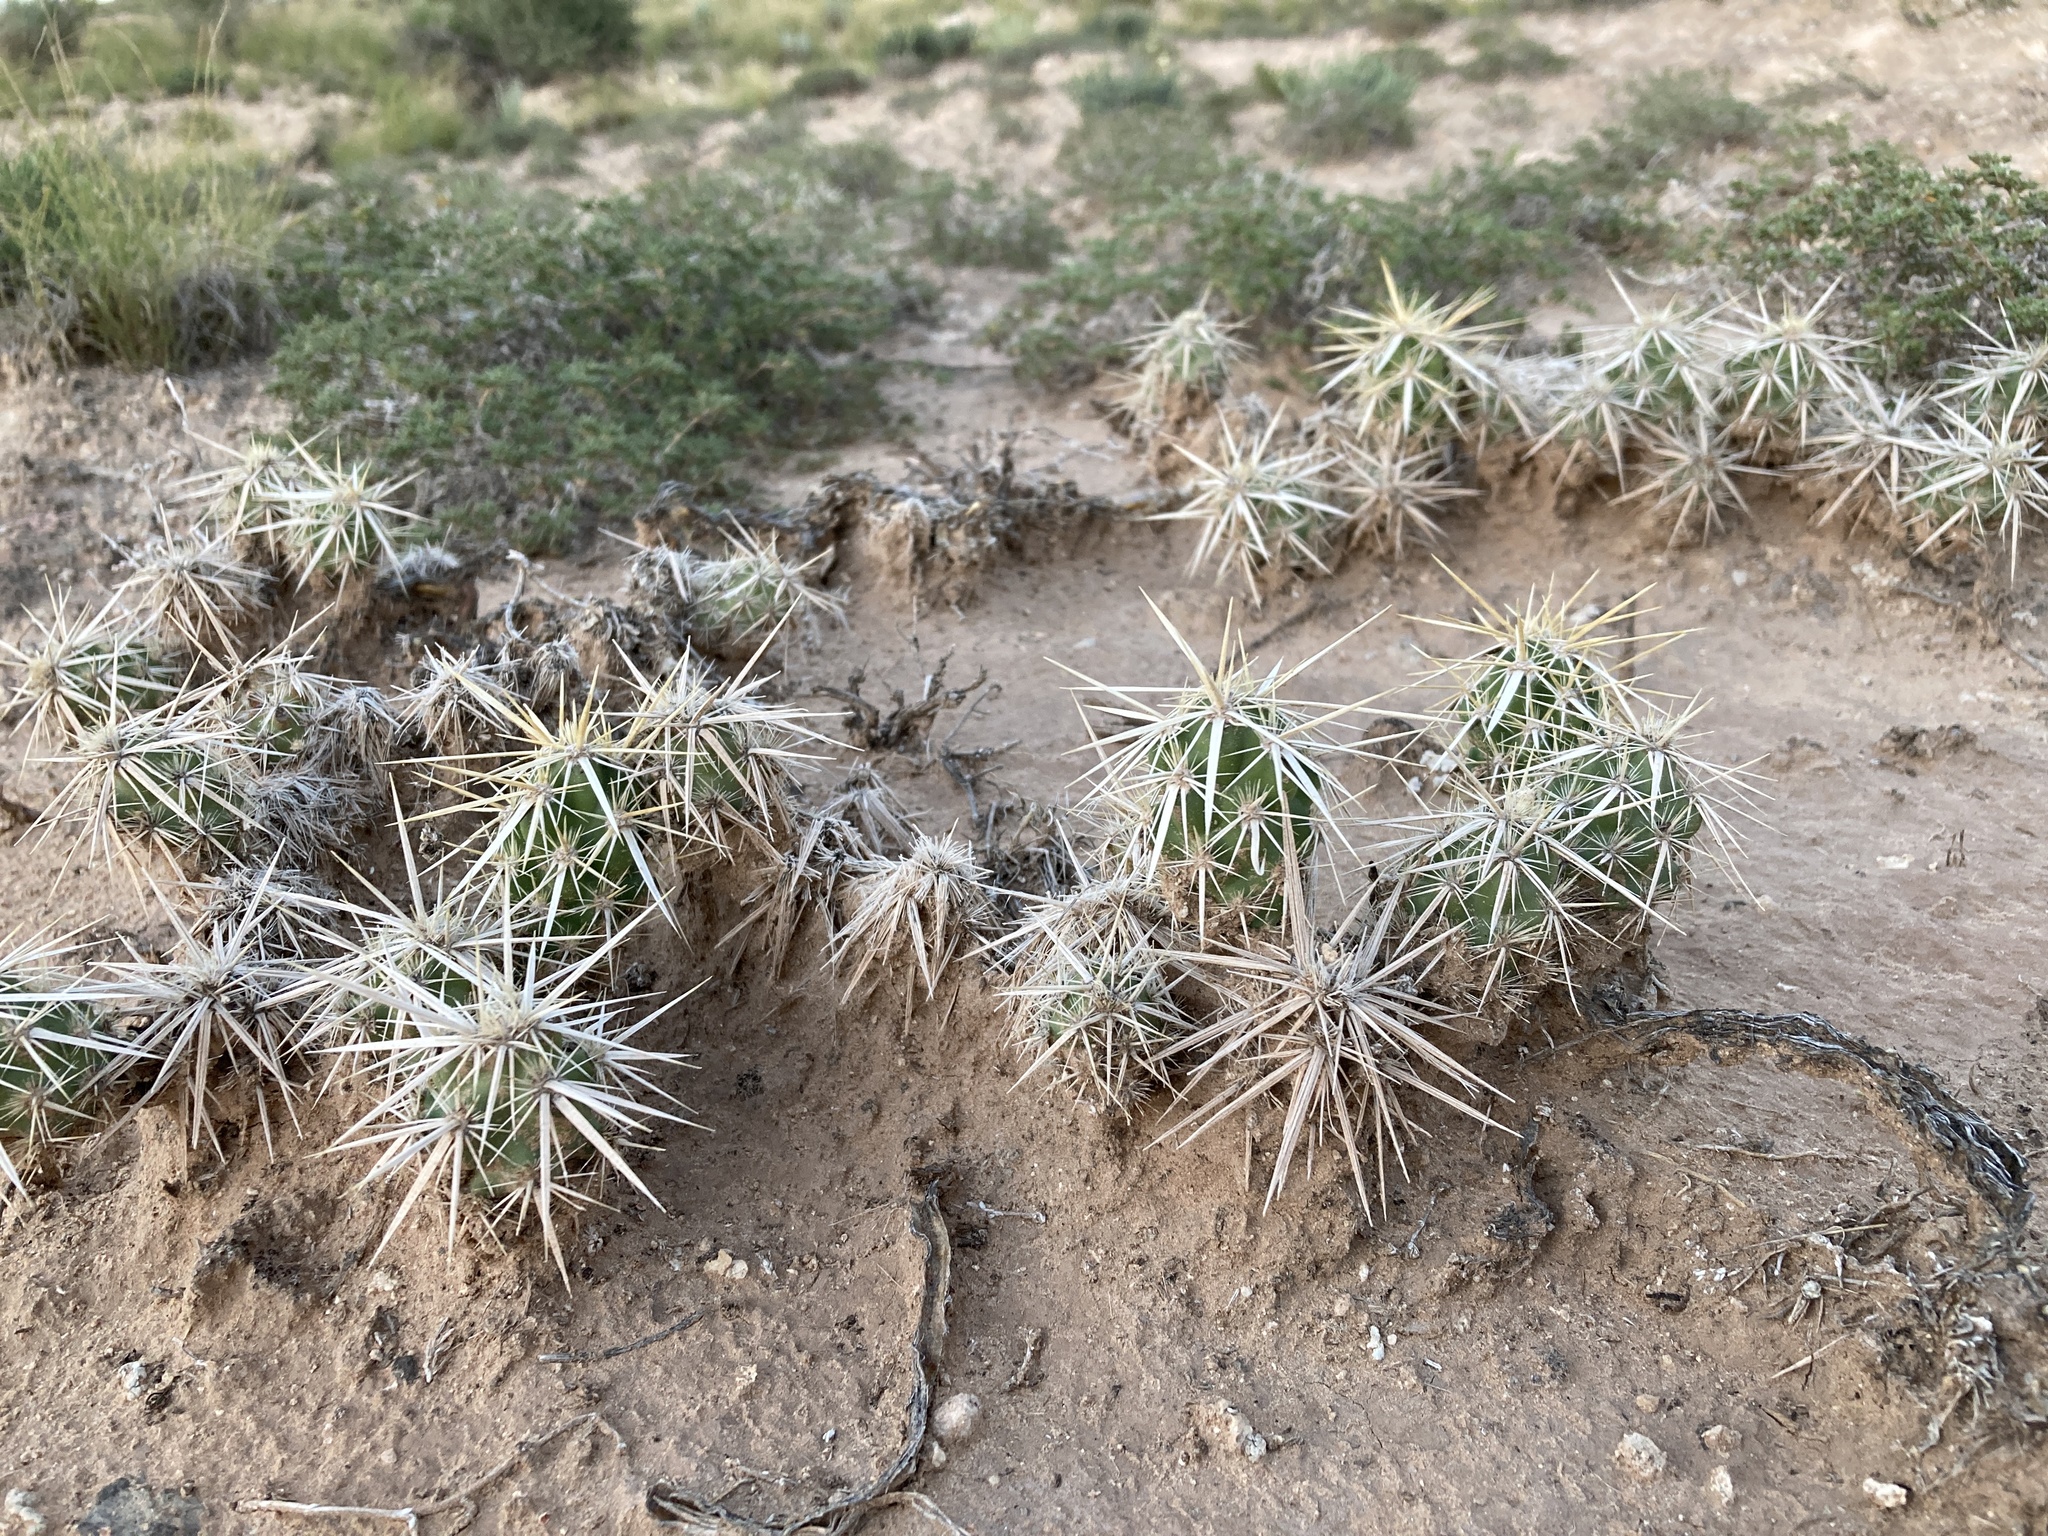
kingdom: Plantae
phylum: Tracheophyta
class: Magnoliopsida
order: Caryophyllales
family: Cactaceae
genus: Grusonia
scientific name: Grusonia clavata
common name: Club cholla
